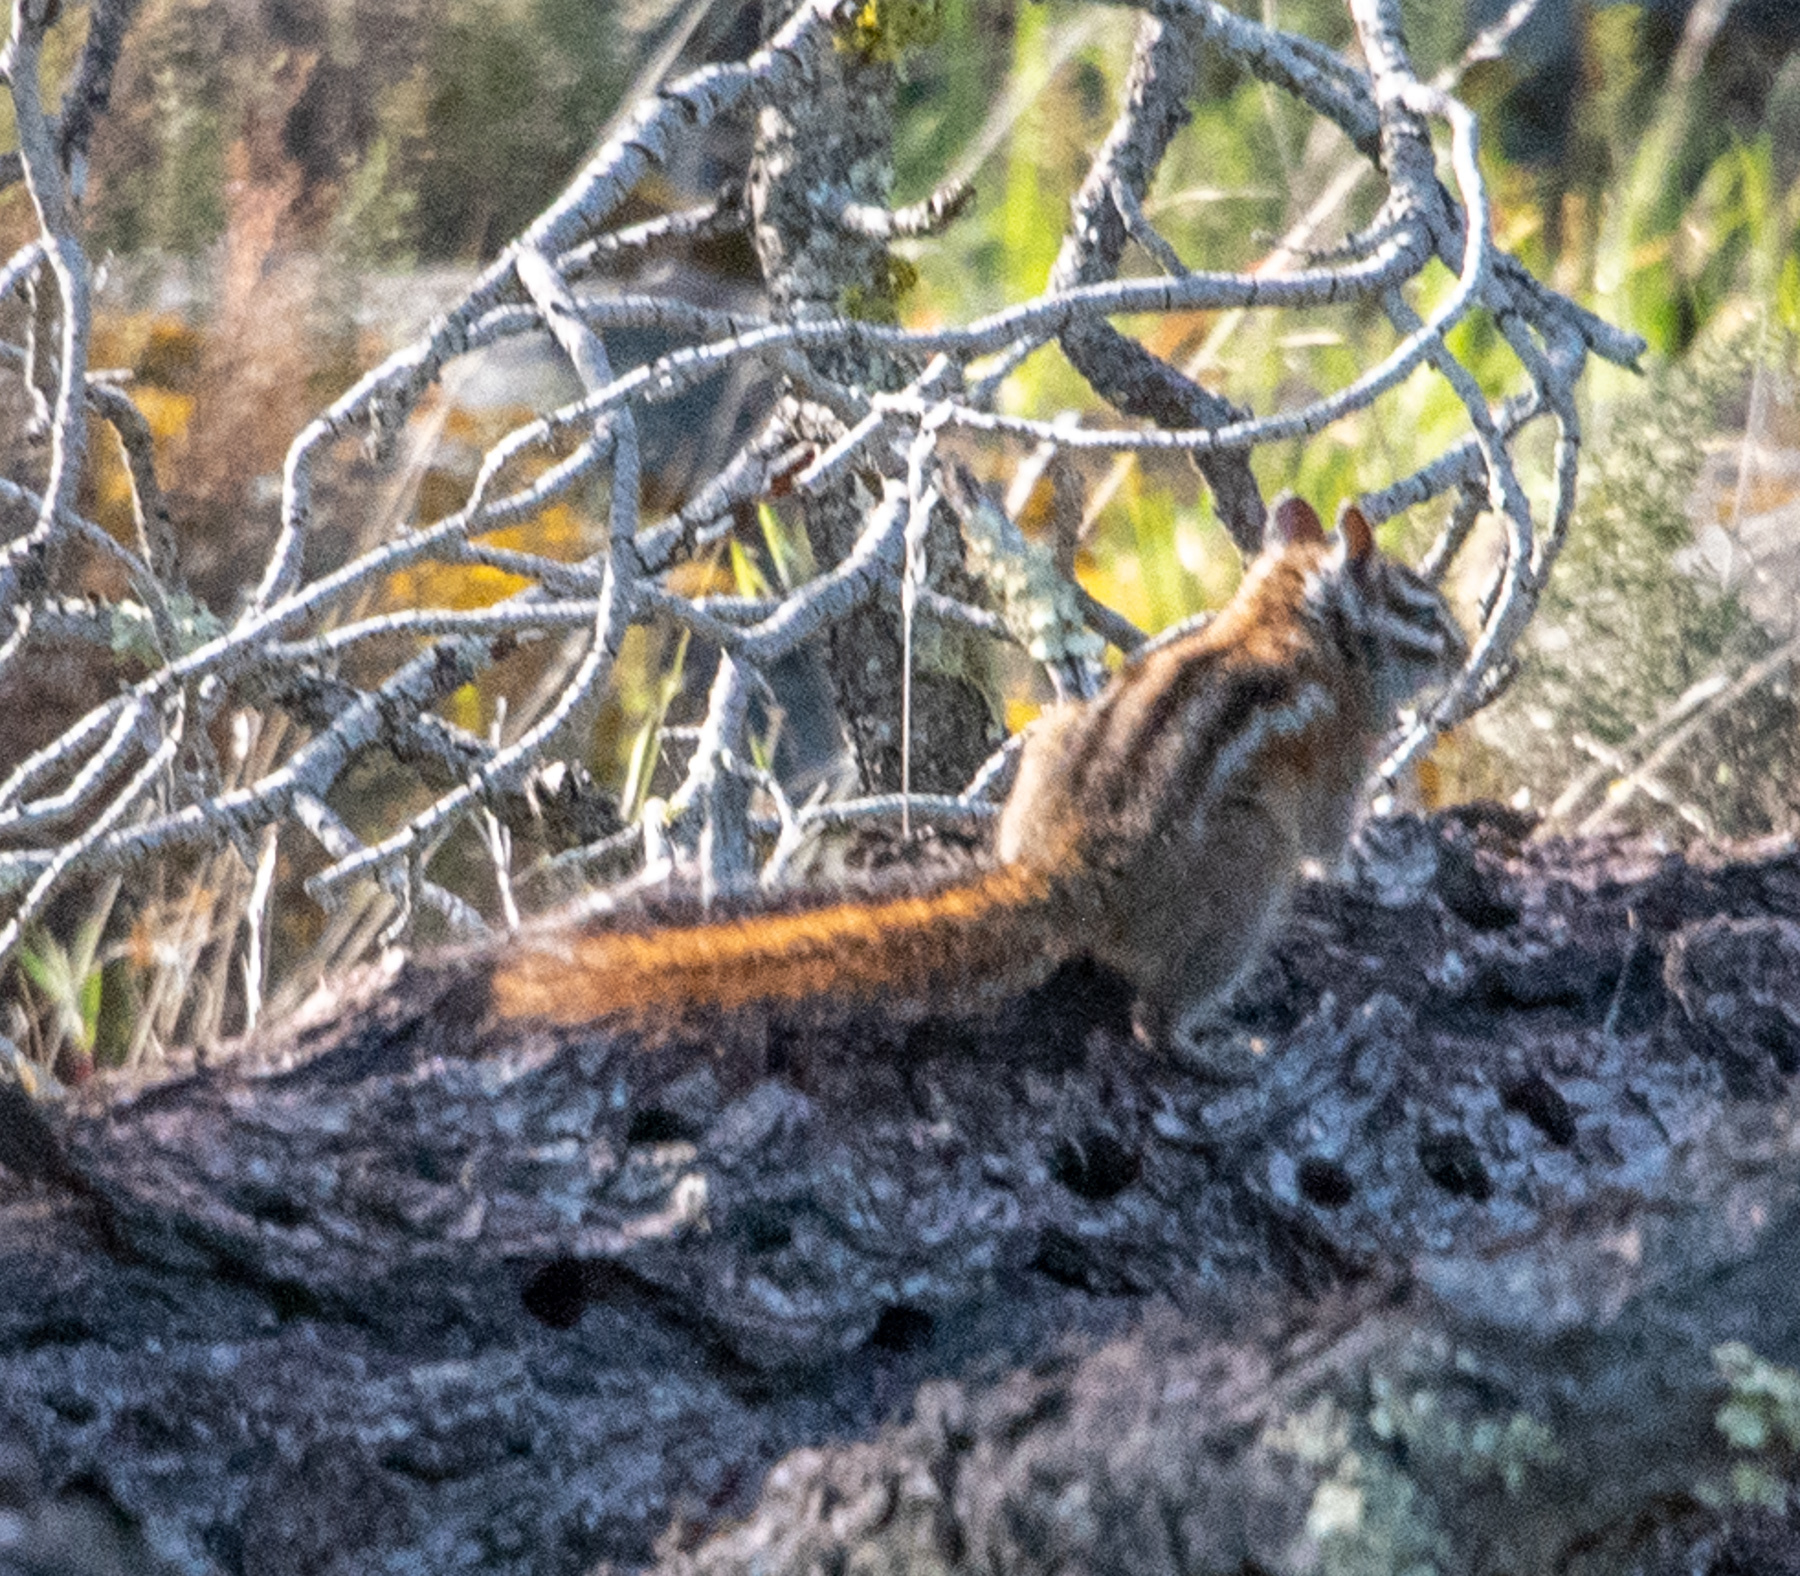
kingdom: Animalia
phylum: Chordata
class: Mammalia
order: Rodentia
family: Sciuridae
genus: Tamias
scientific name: Tamias sonomae
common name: Sonoma chipmunk
